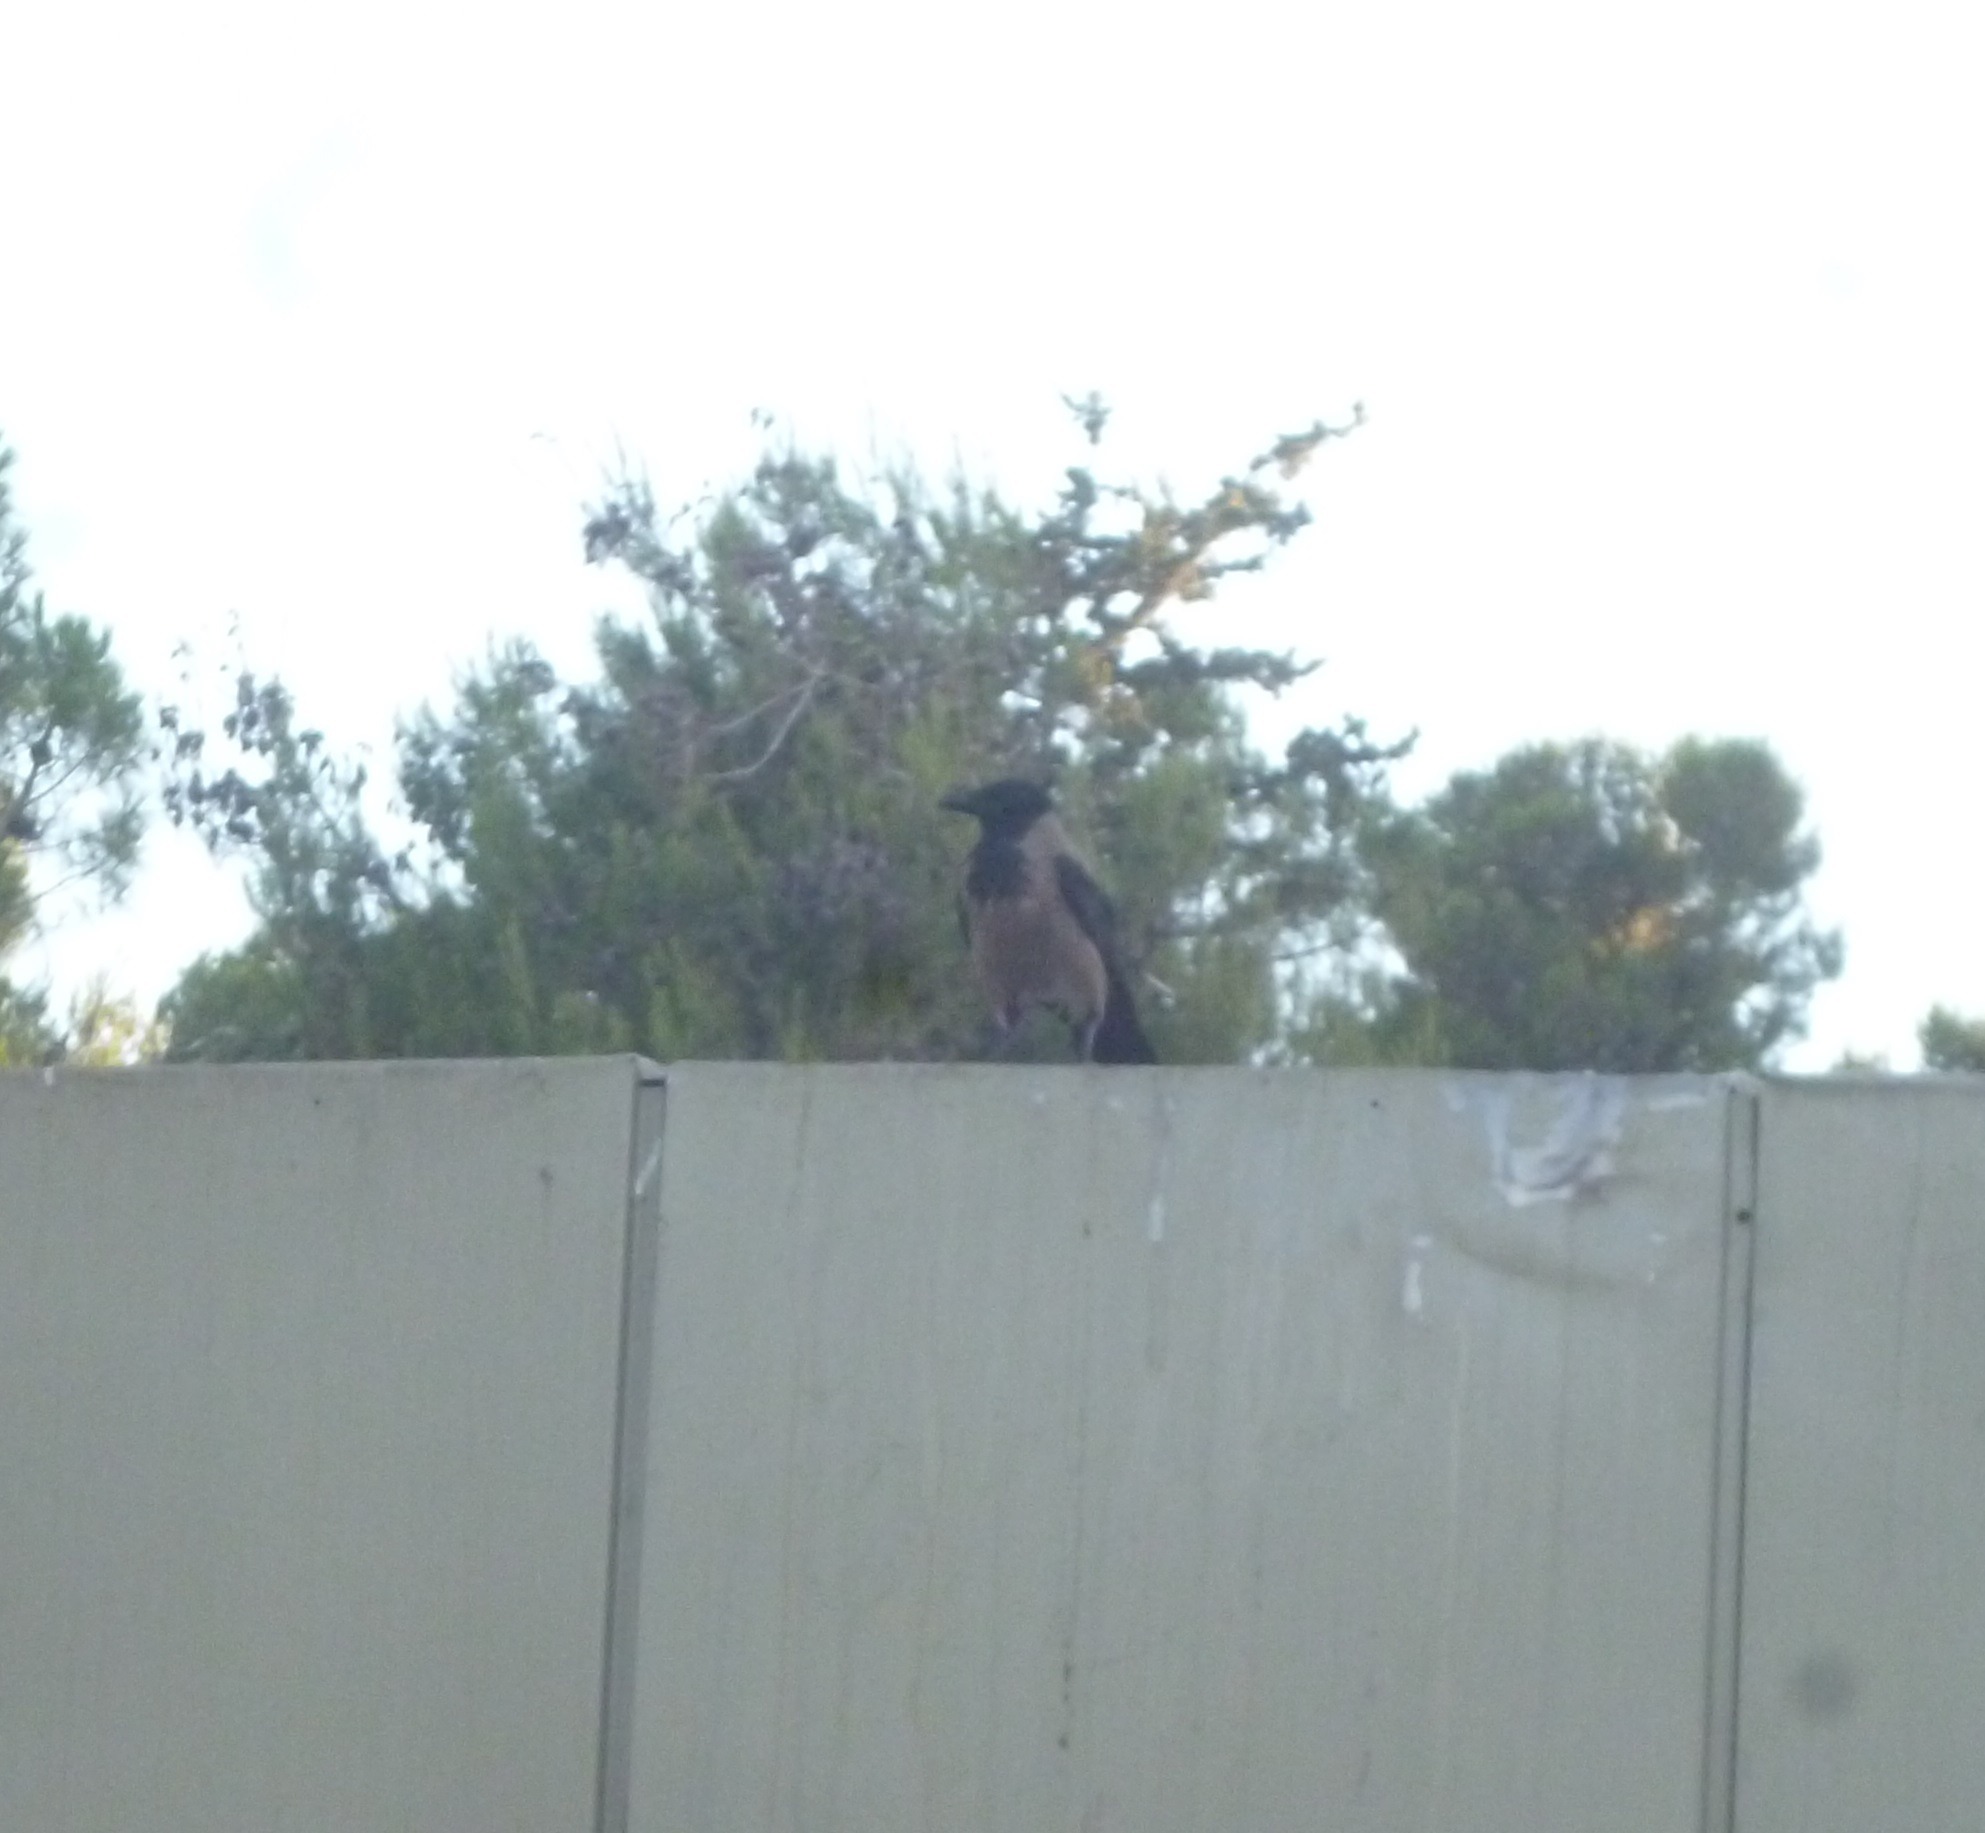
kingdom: Animalia
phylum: Chordata
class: Aves
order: Passeriformes
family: Corvidae
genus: Corvus
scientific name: Corvus cornix
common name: Hooded crow
